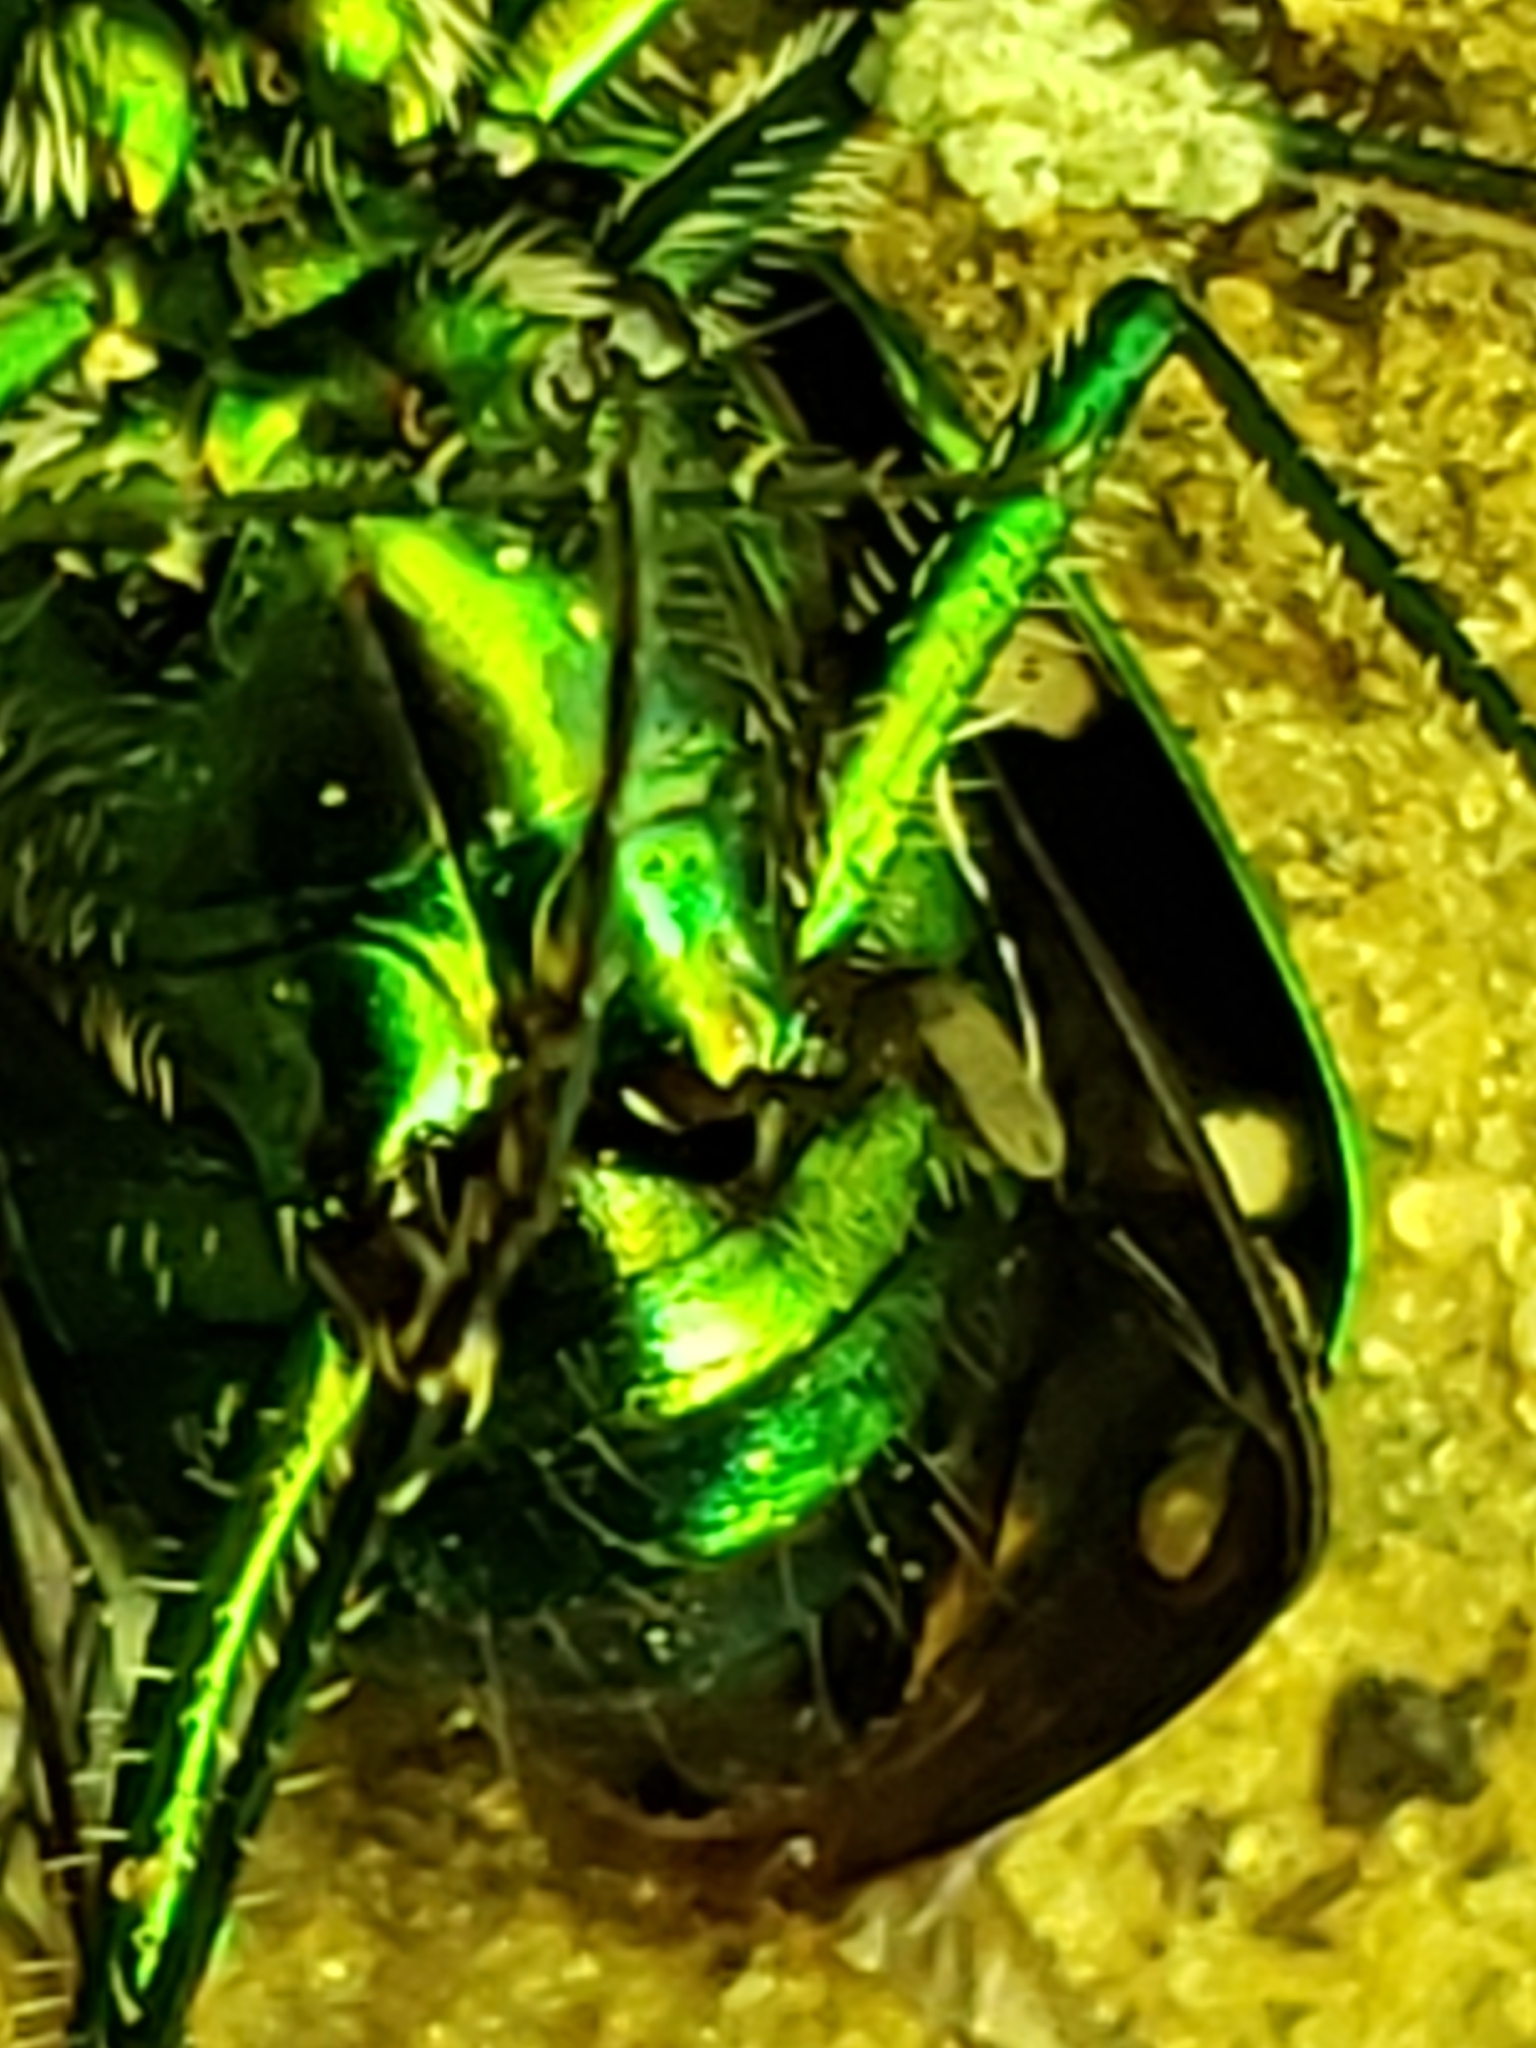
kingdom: Animalia
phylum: Arthropoda
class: Insecta
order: Coleoptera
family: Carabidae
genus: Cicindela
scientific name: Cicindela sexguttata
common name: Six-spotted tiger beetle
